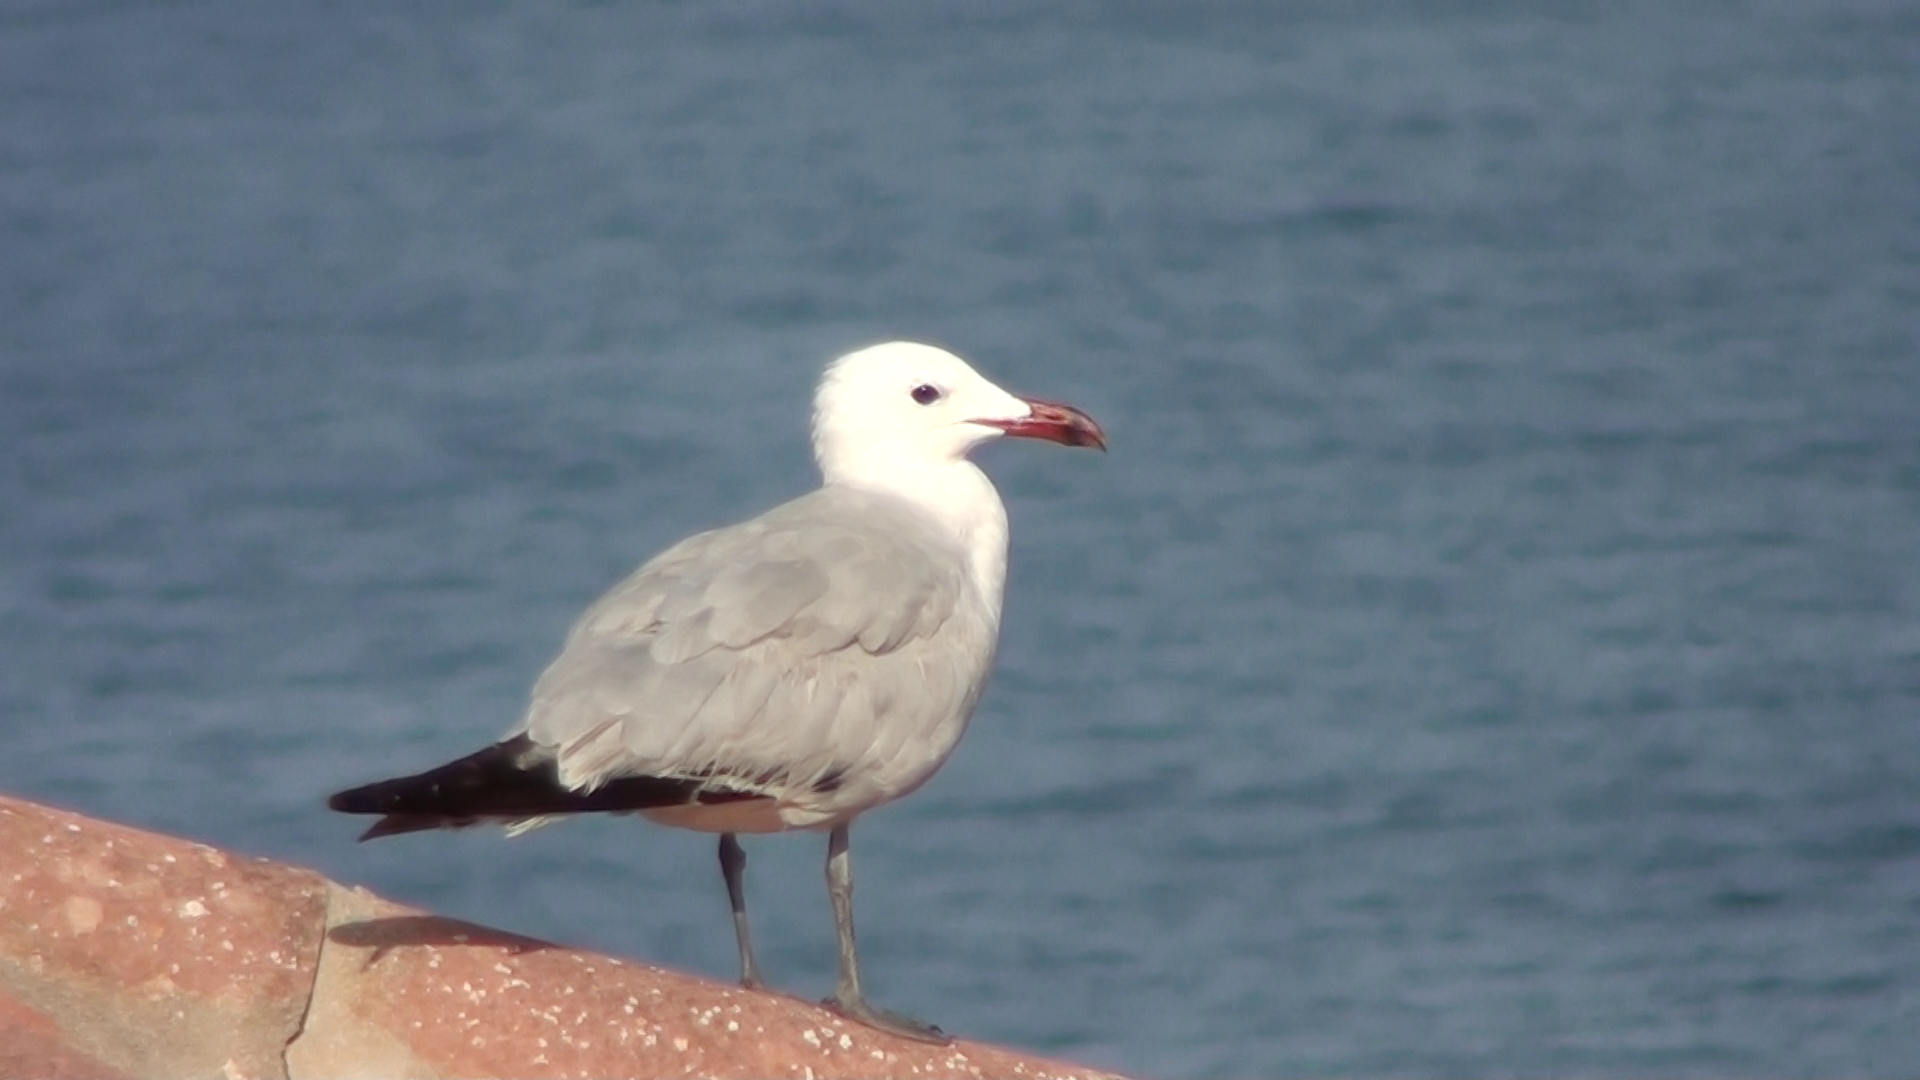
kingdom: Animalia
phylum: Chordata
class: Aves
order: Charadriiformes
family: Laridae
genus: Ichthyaetus
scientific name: Ichthyaetus audouinii
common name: Audouin's gull
